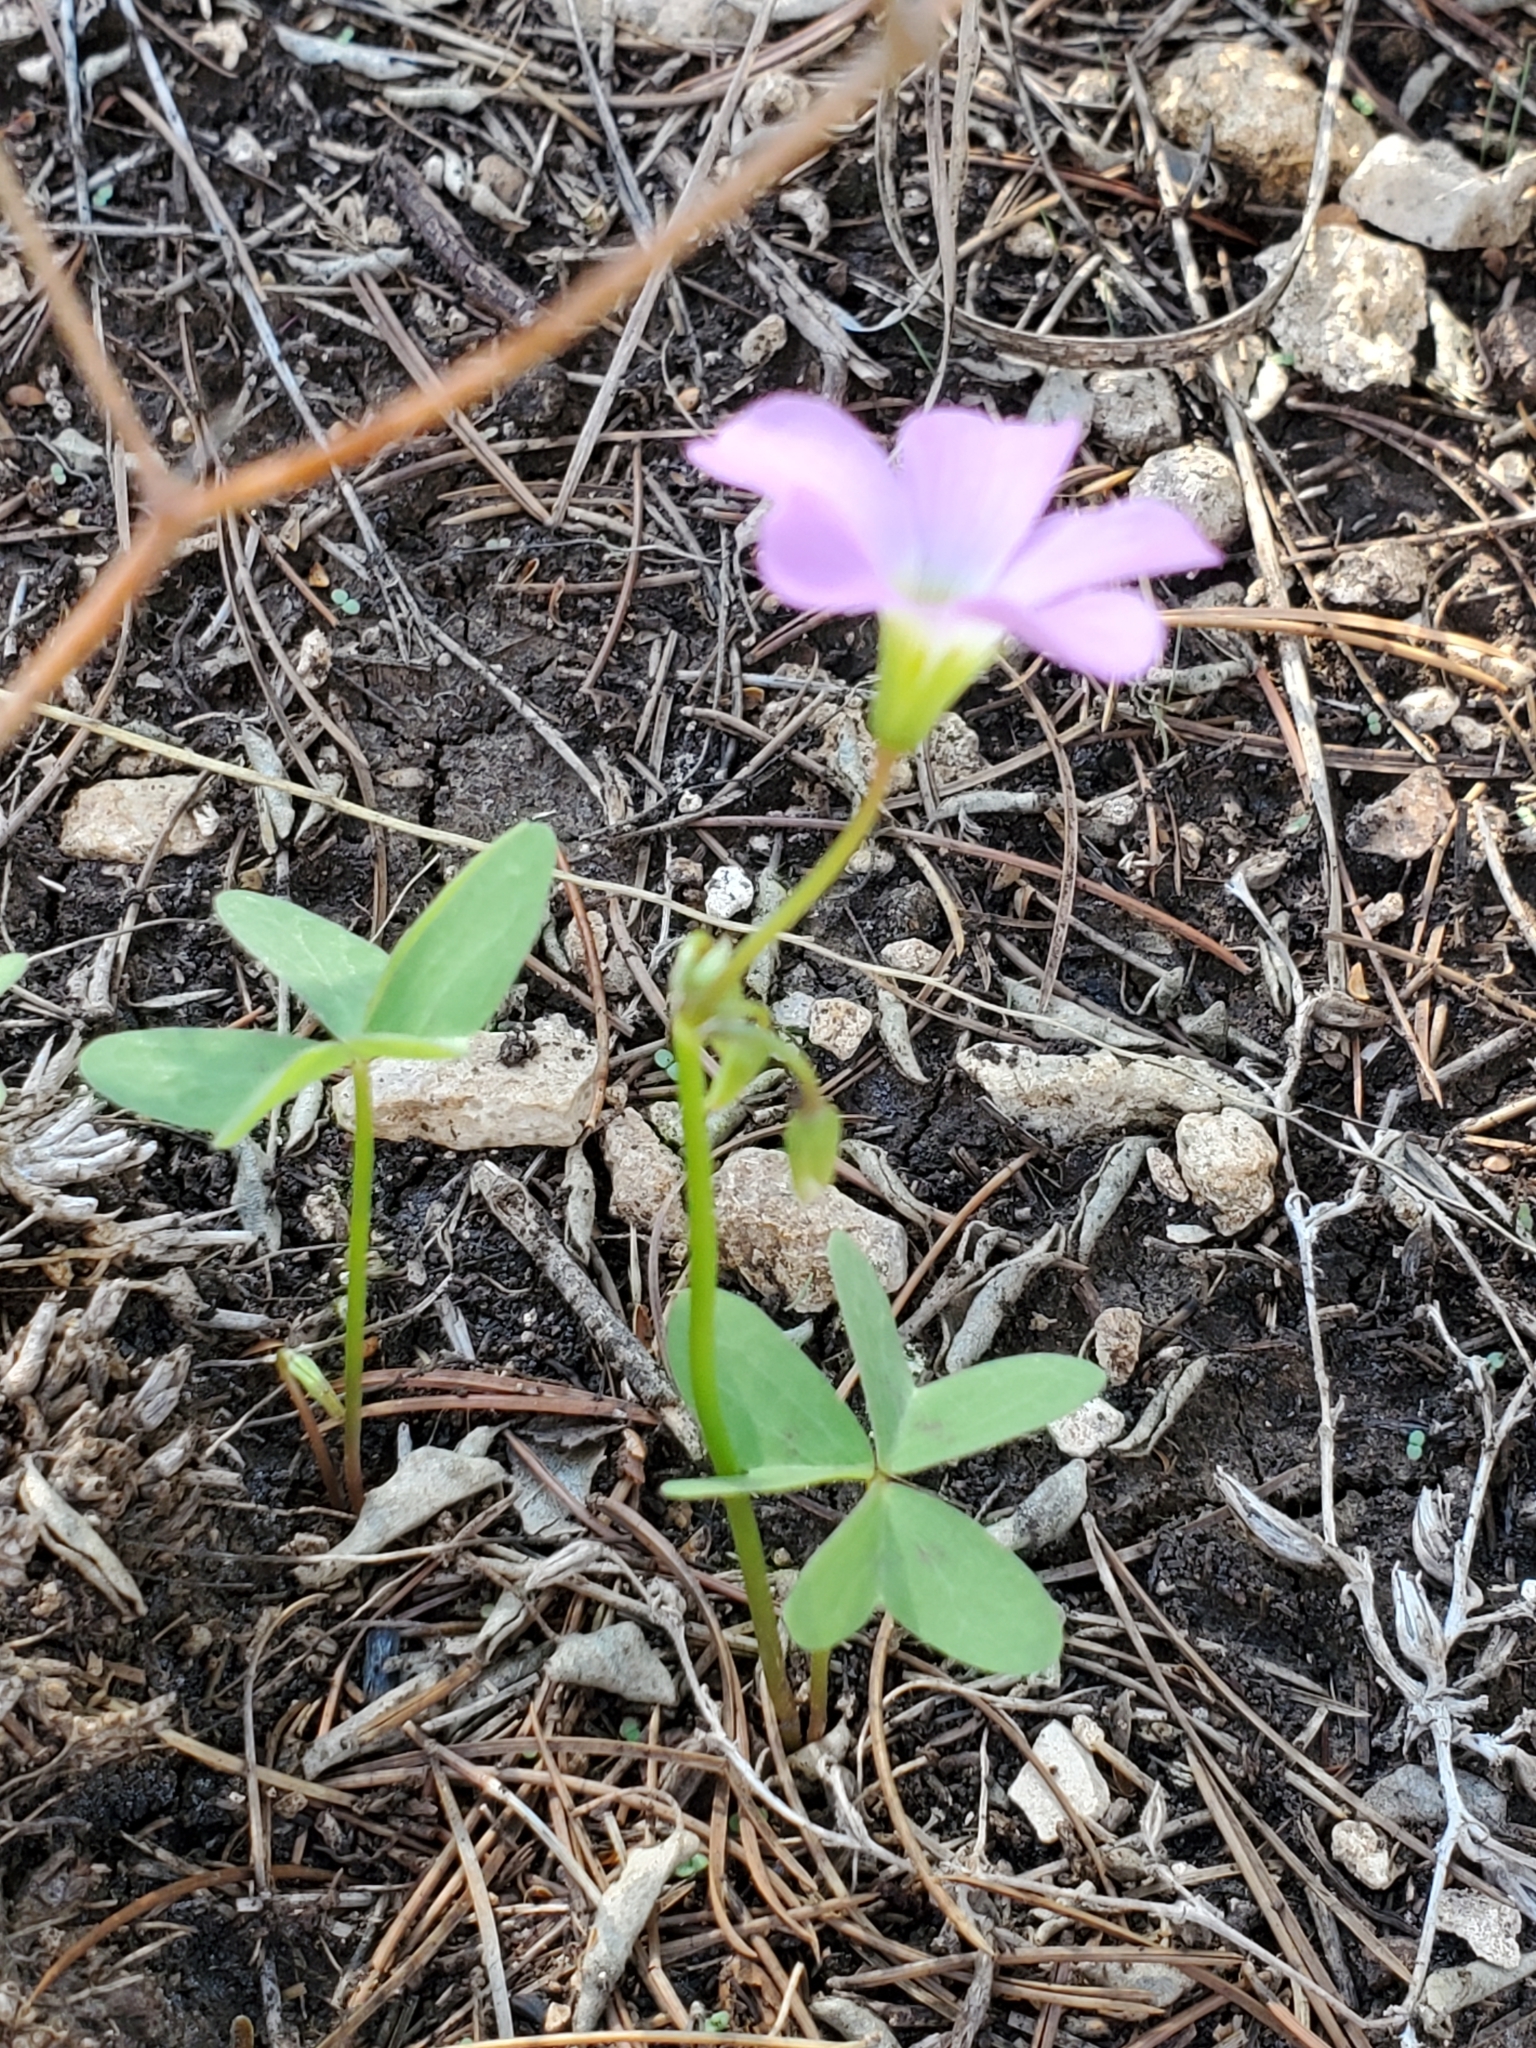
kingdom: Plantae
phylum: Tracheophyta
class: Magnoliopsida
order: Oxalidales
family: Oxalidaceae
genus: Oxalis
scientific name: Oxalis drummondii
